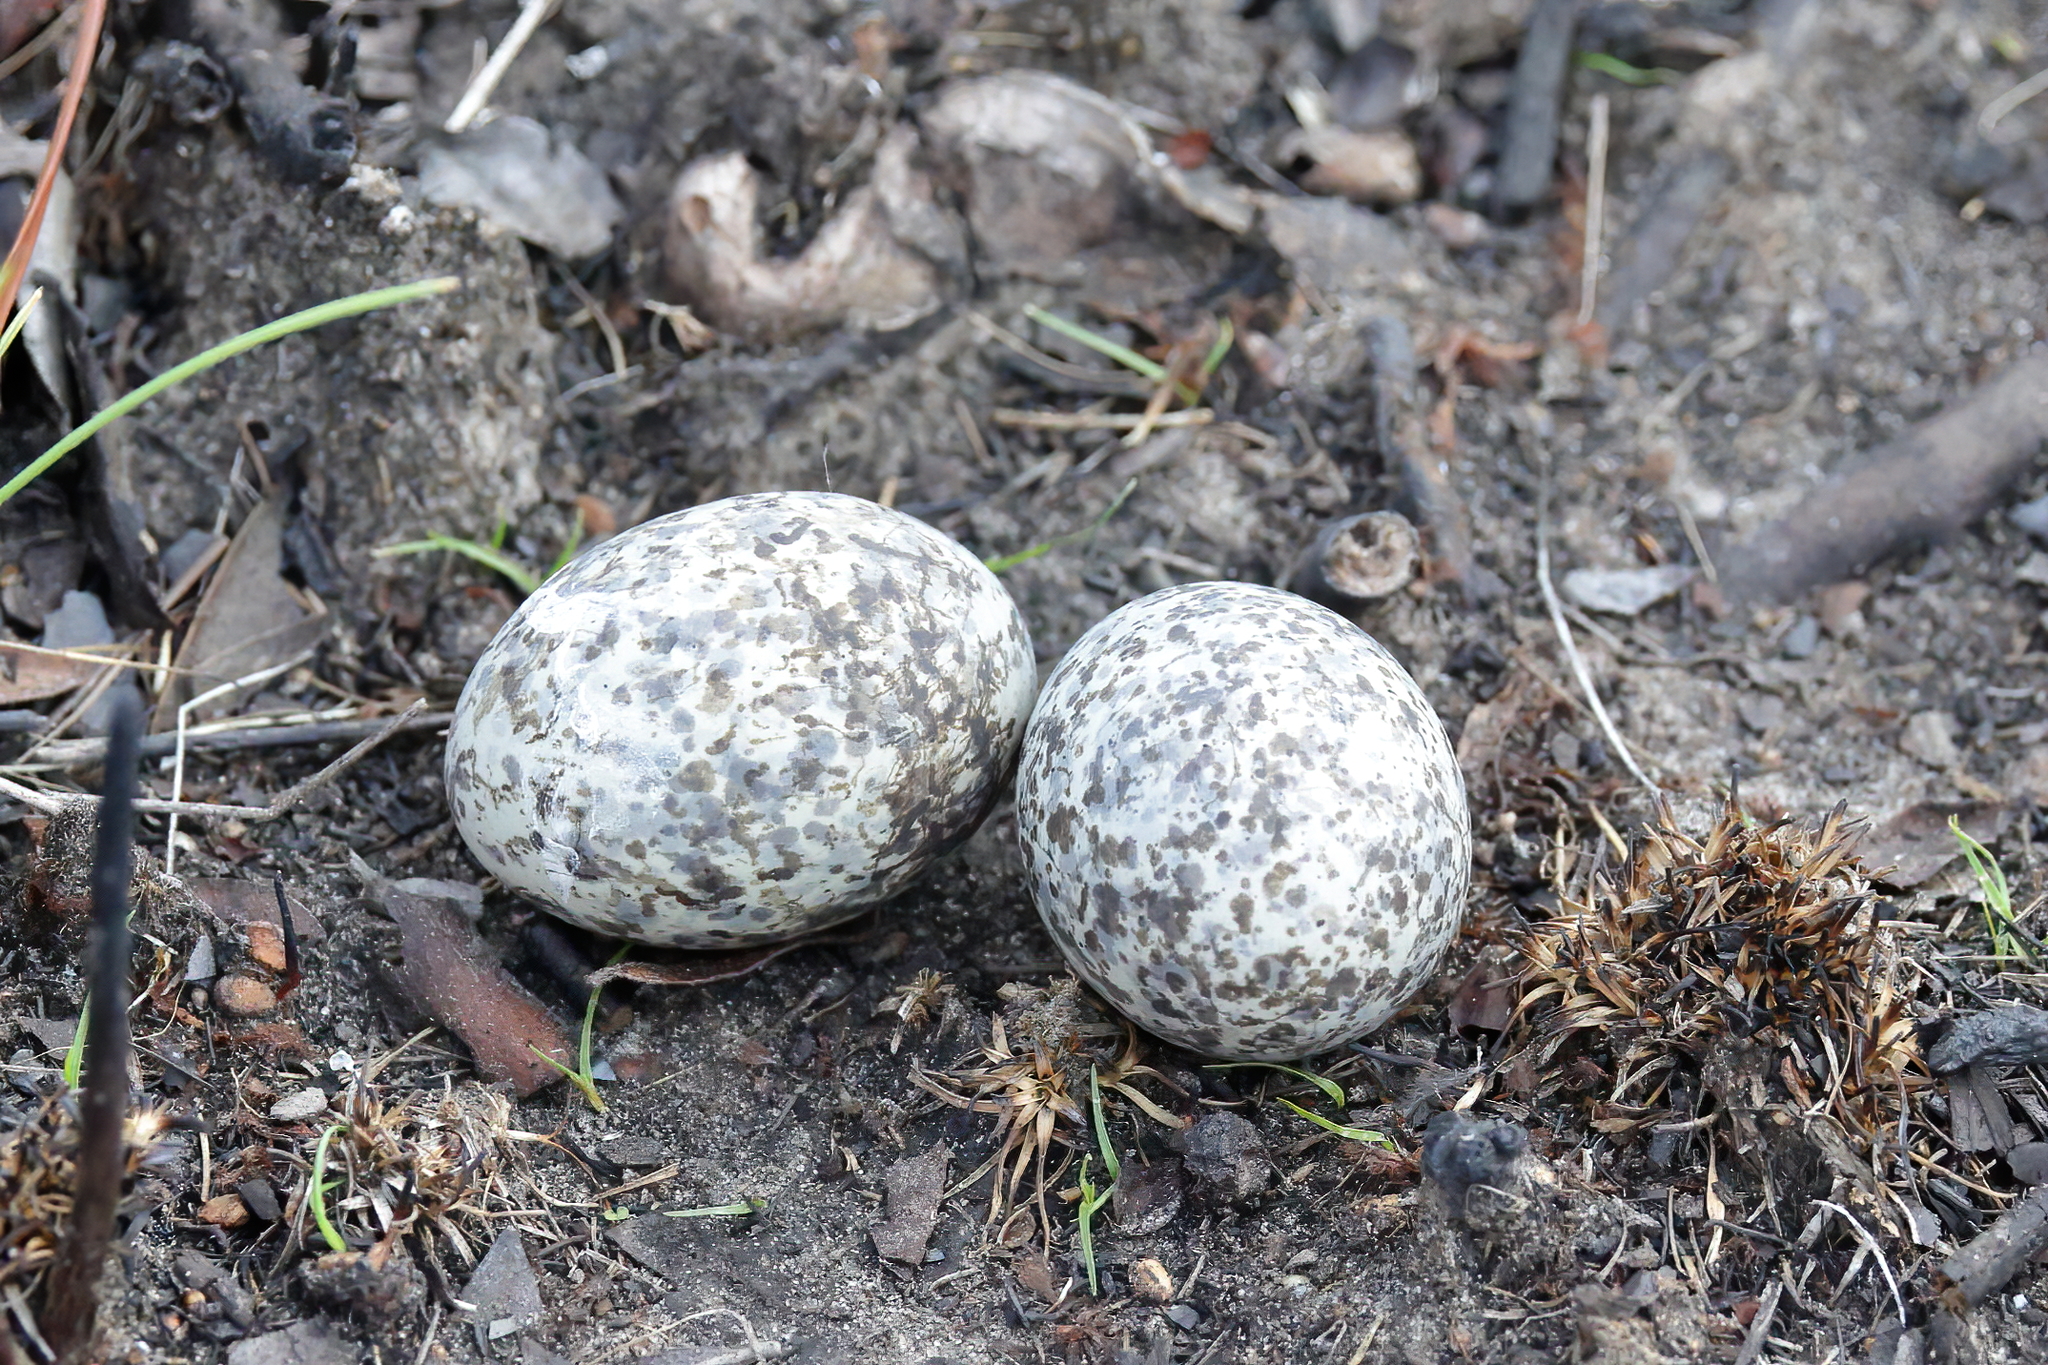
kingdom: Animalia
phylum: Chordata
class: Aves
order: Caprimulgiformes
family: Caprimulgidae
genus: Chordeiles
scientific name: Chordeiles minor
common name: Common nighthawk
